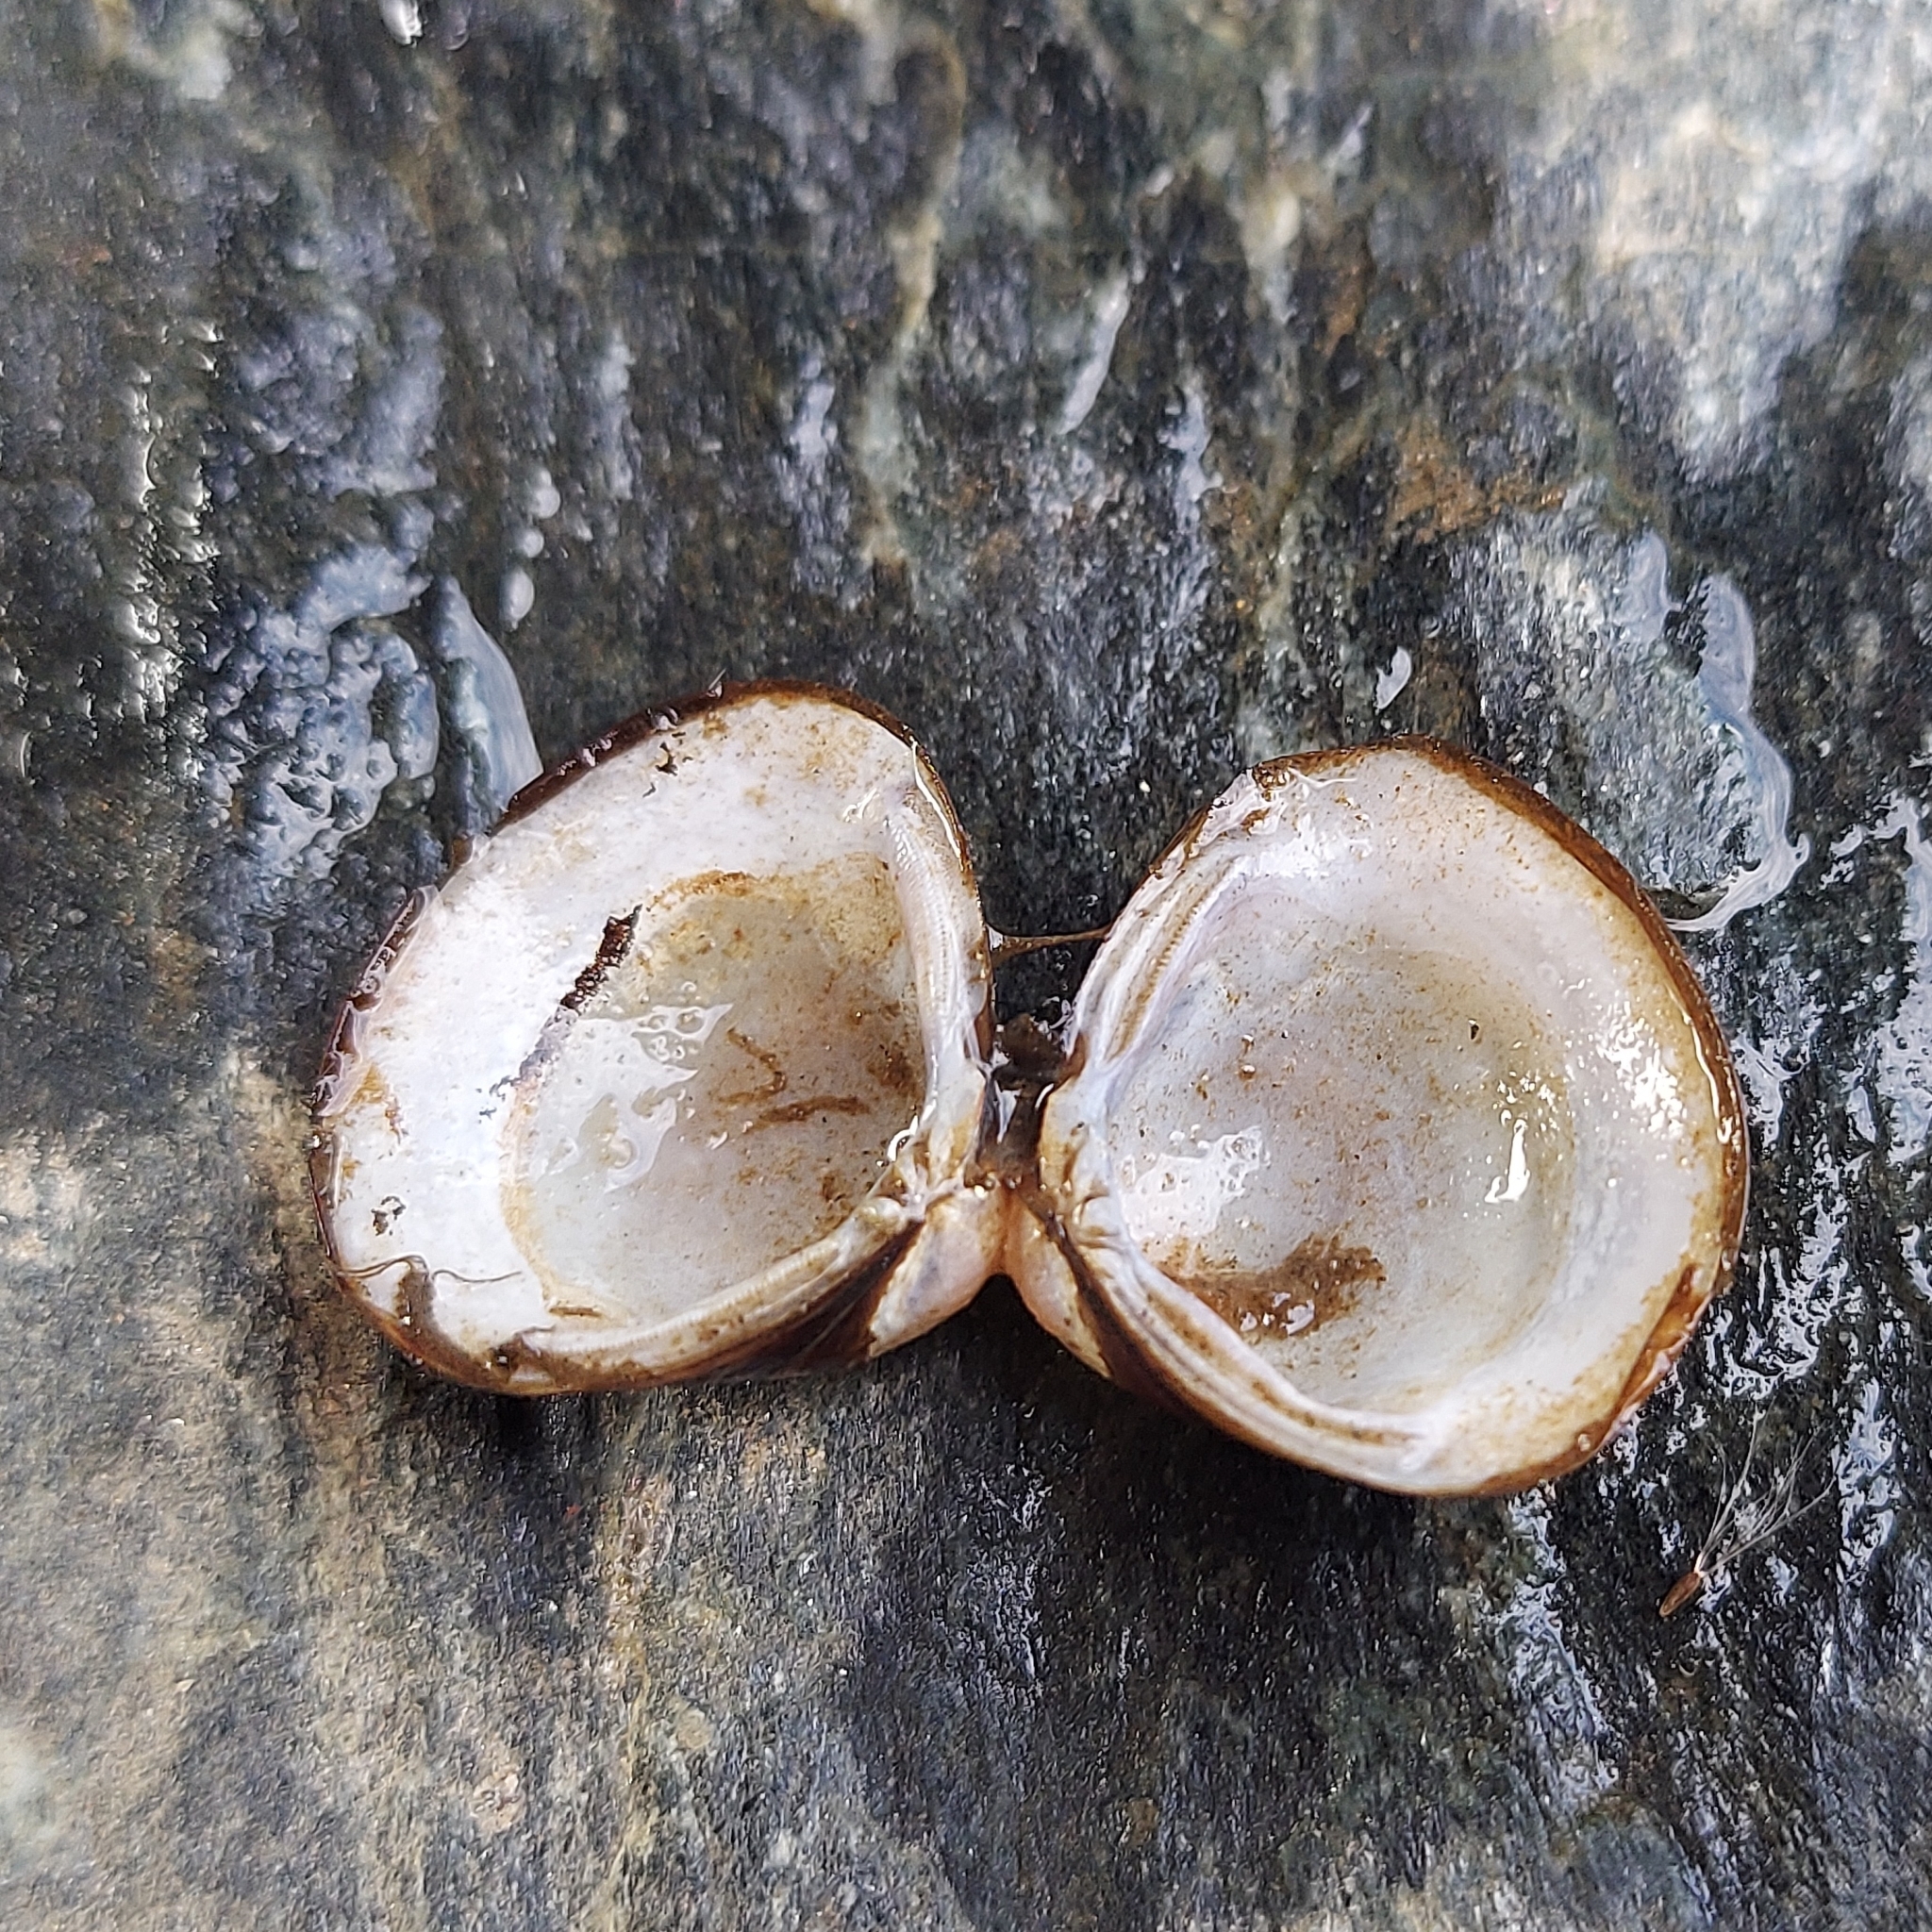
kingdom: Animalia
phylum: Mollusca
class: Bivalvia
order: Venerida
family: Cyrenidae
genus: Corbicula
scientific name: Corbicula fluminea
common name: Asian clam
